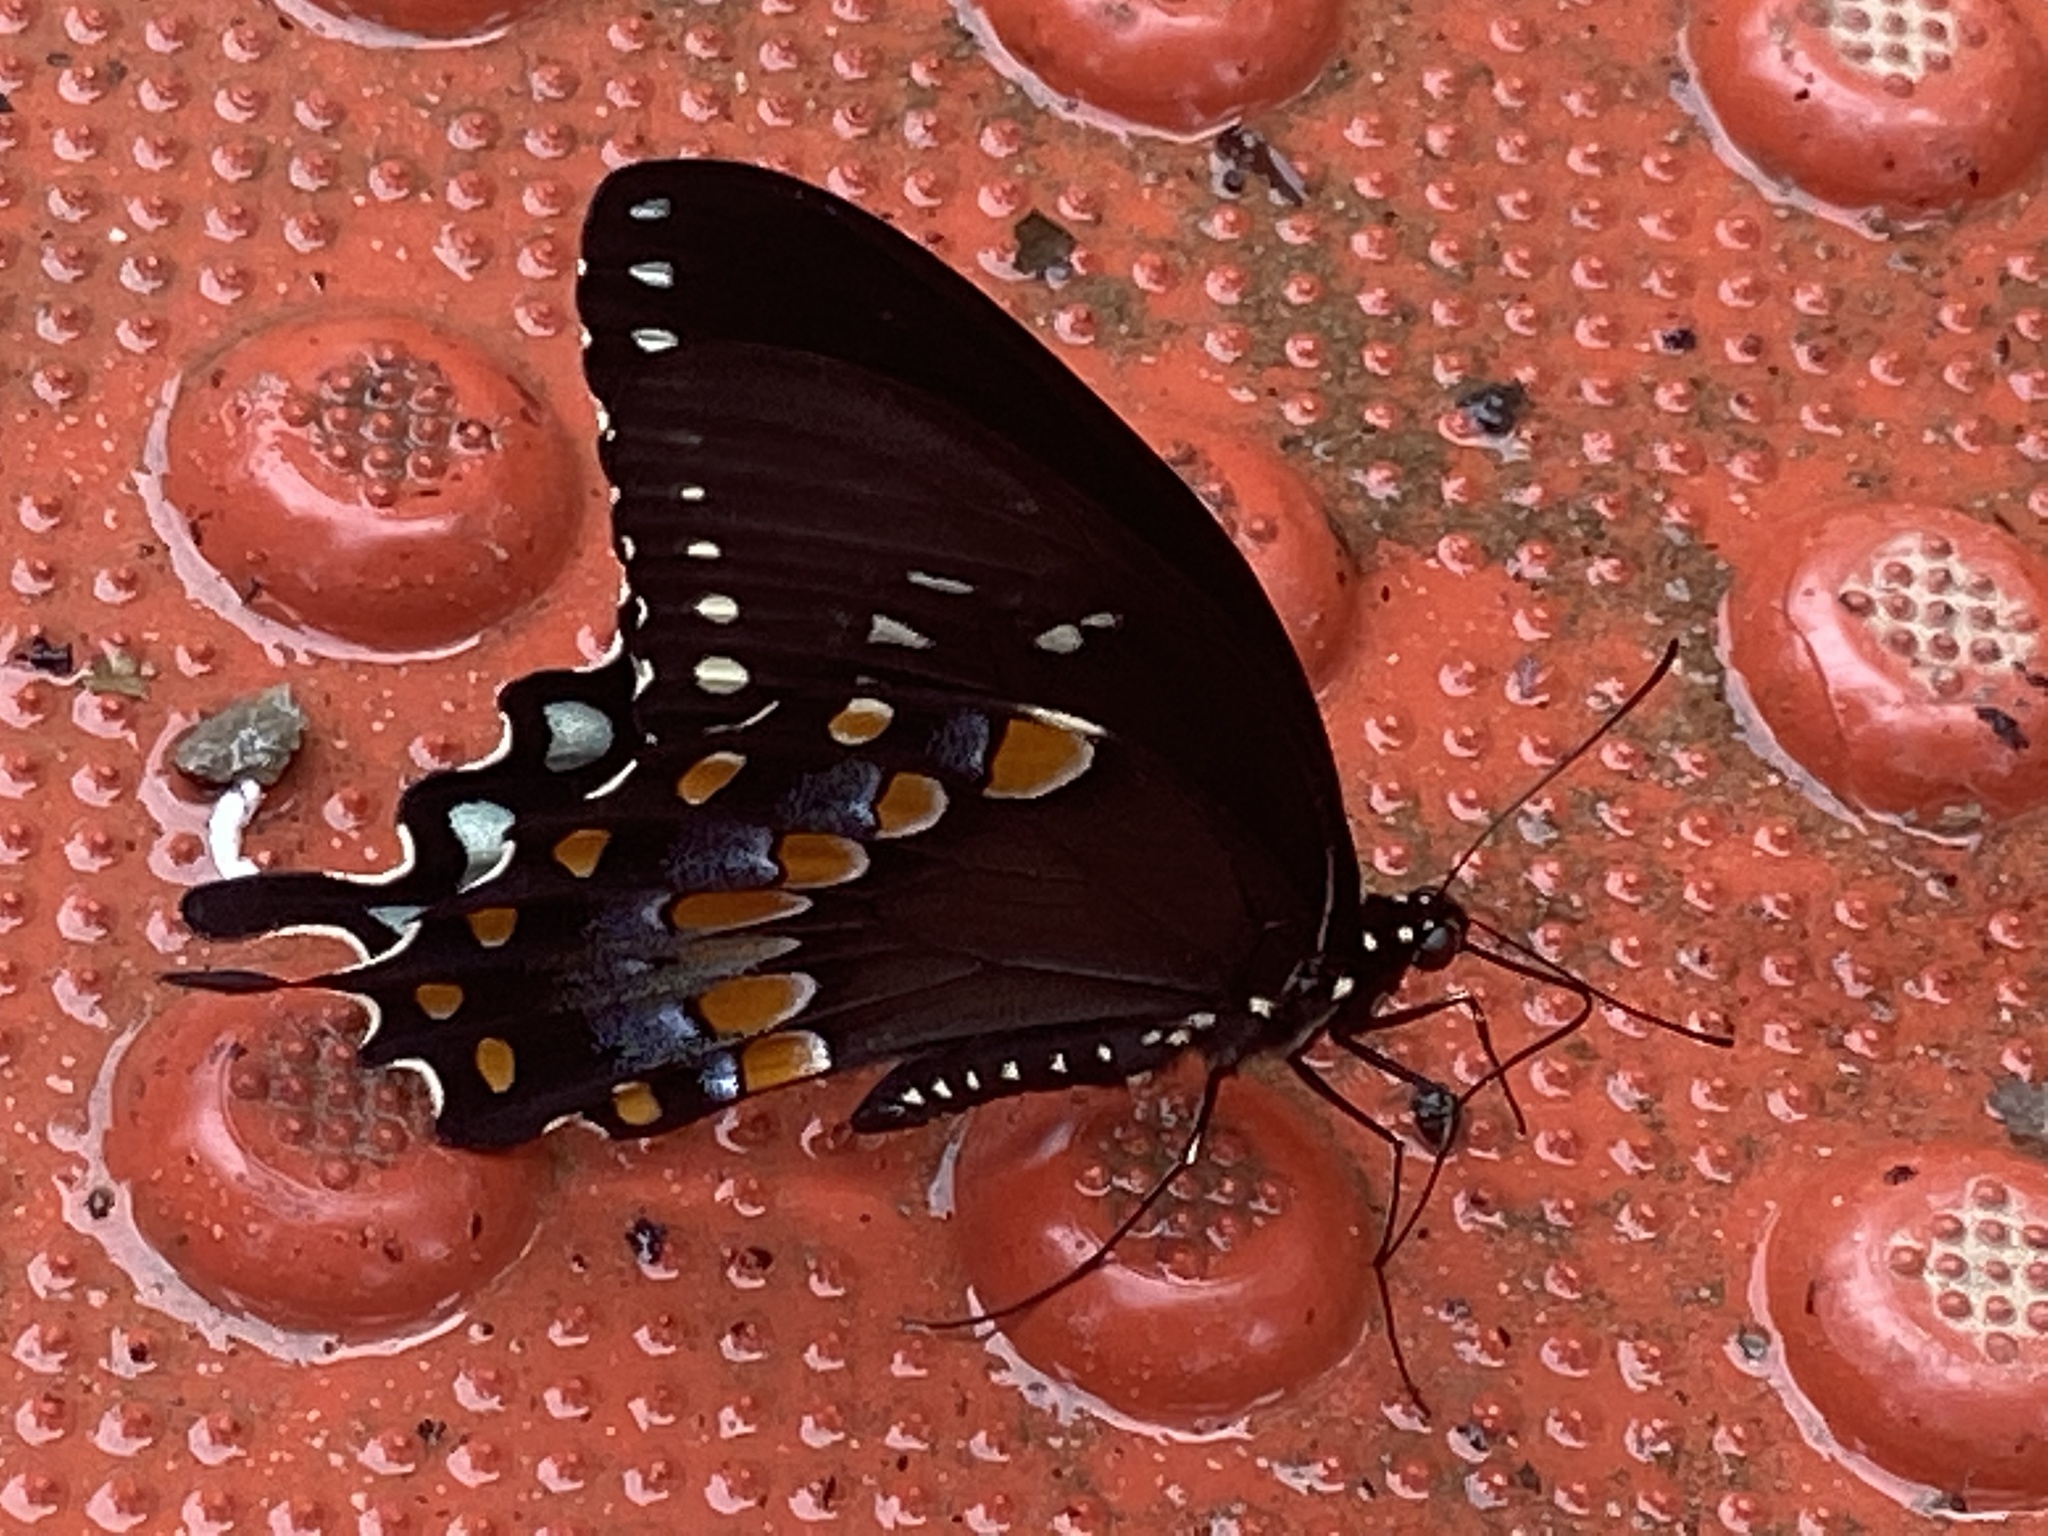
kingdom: Animalia
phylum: Arthropoda
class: Insecta
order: Lepidoptera
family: Papilionidae
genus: Papilio
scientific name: Papilio troilus
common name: Spicebush swallowtail
